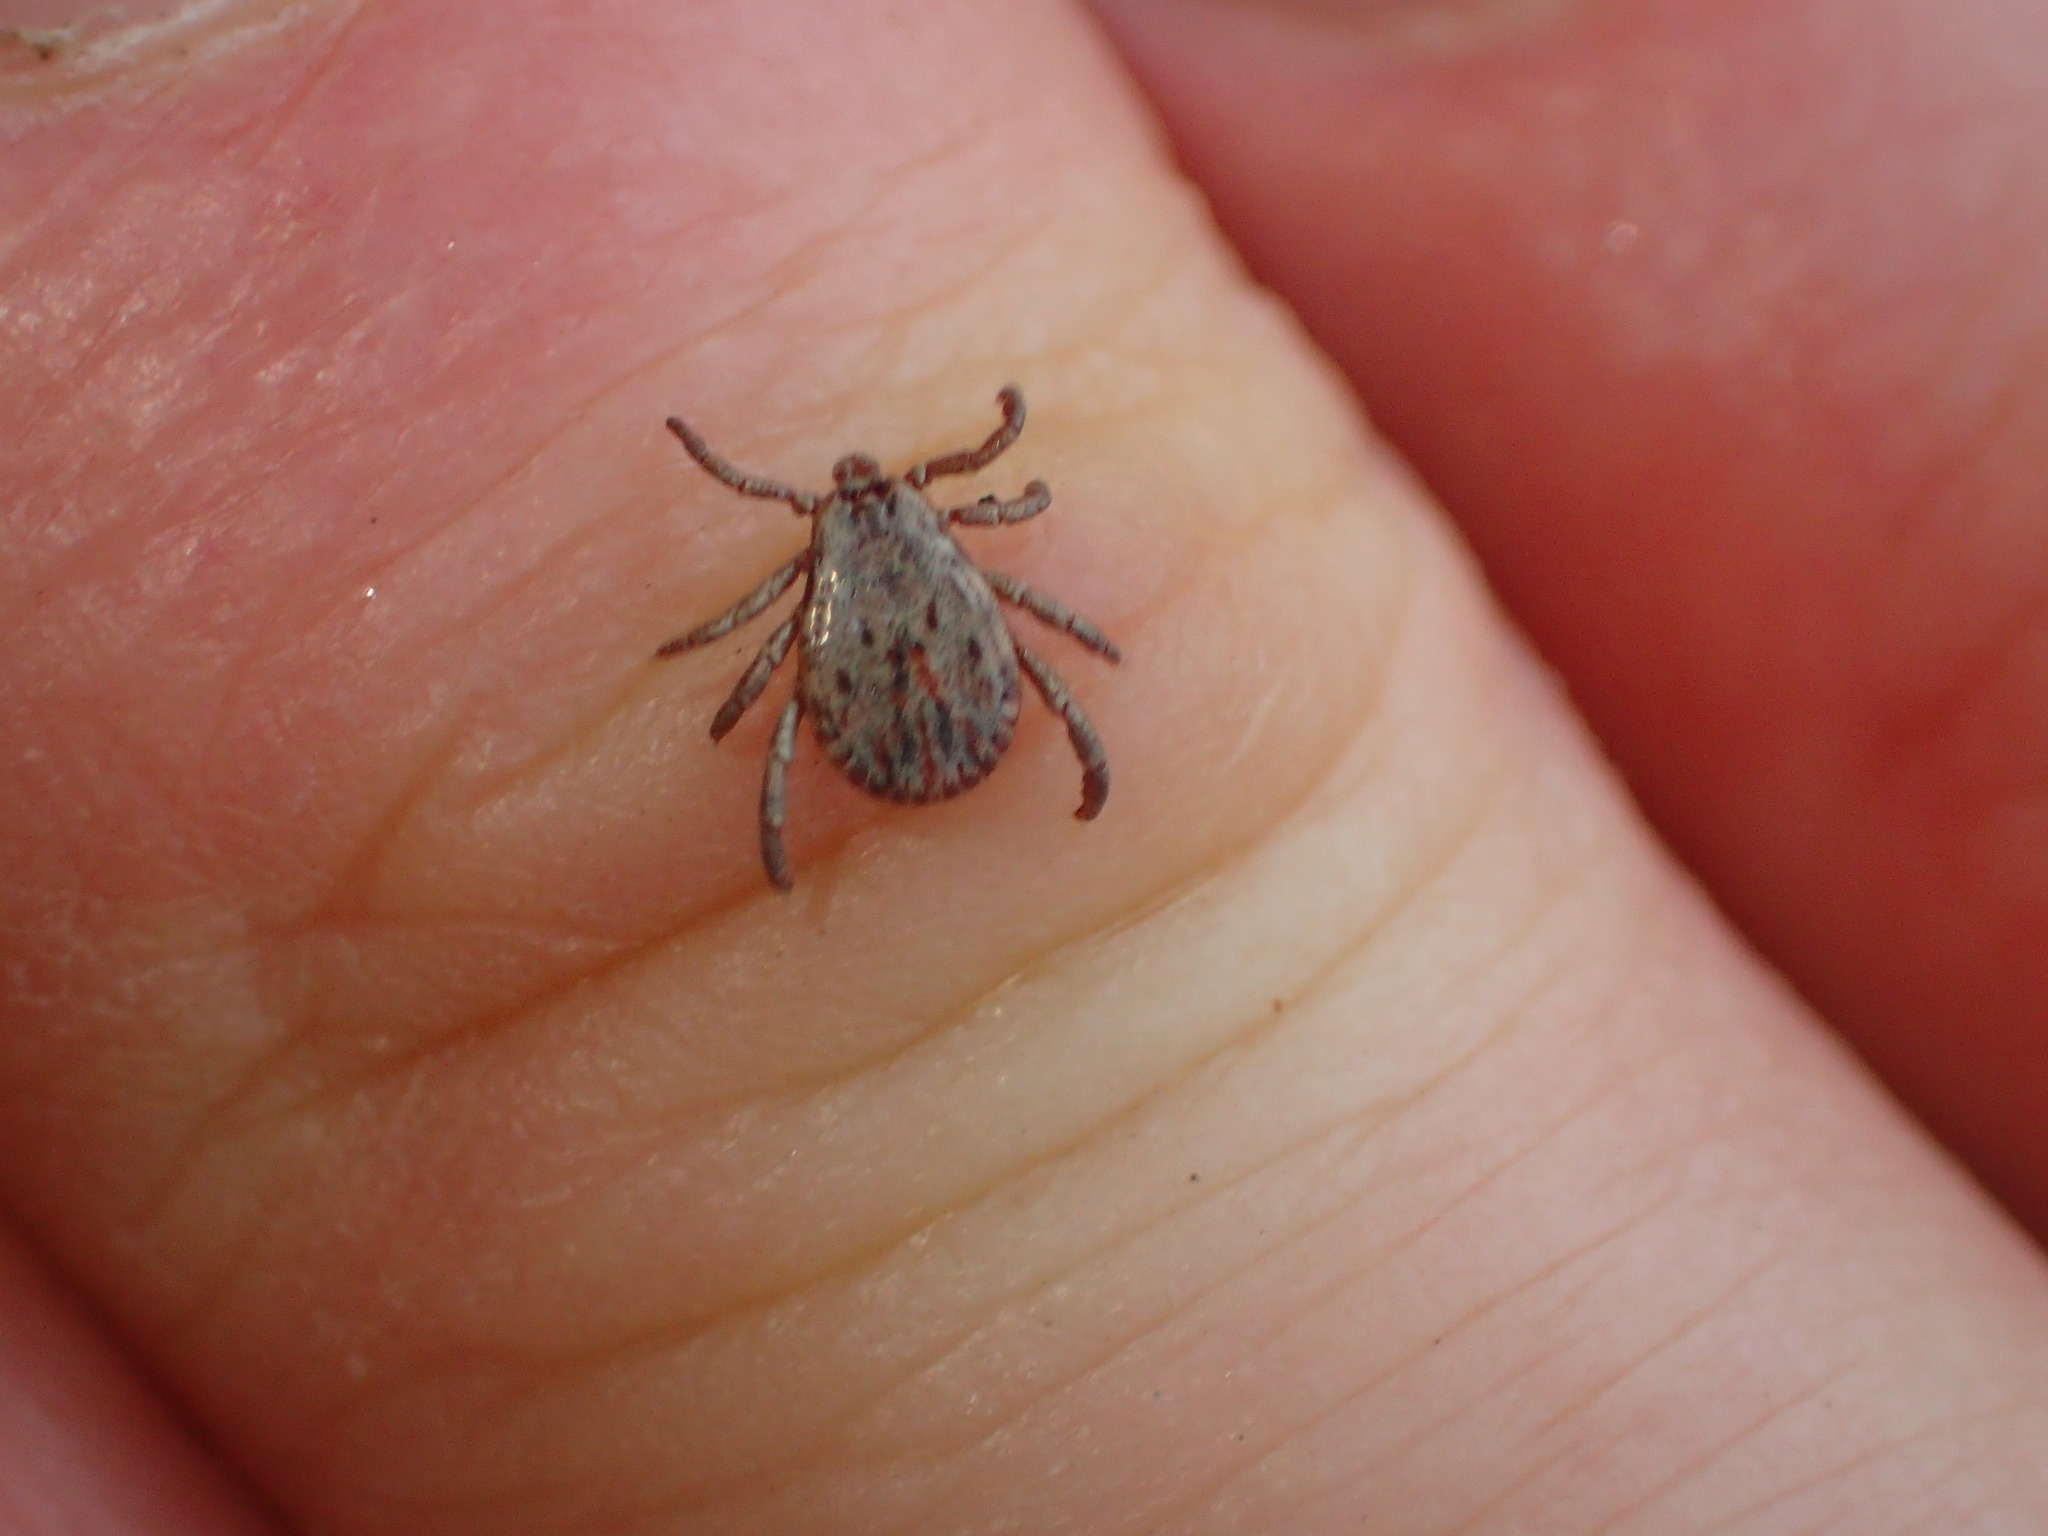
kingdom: Animalia
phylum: Arthropoda
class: Arachnida
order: Ixodida
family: Ixodidae
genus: Dermacentor
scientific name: Dermacentor occidentalis
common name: Net tick
